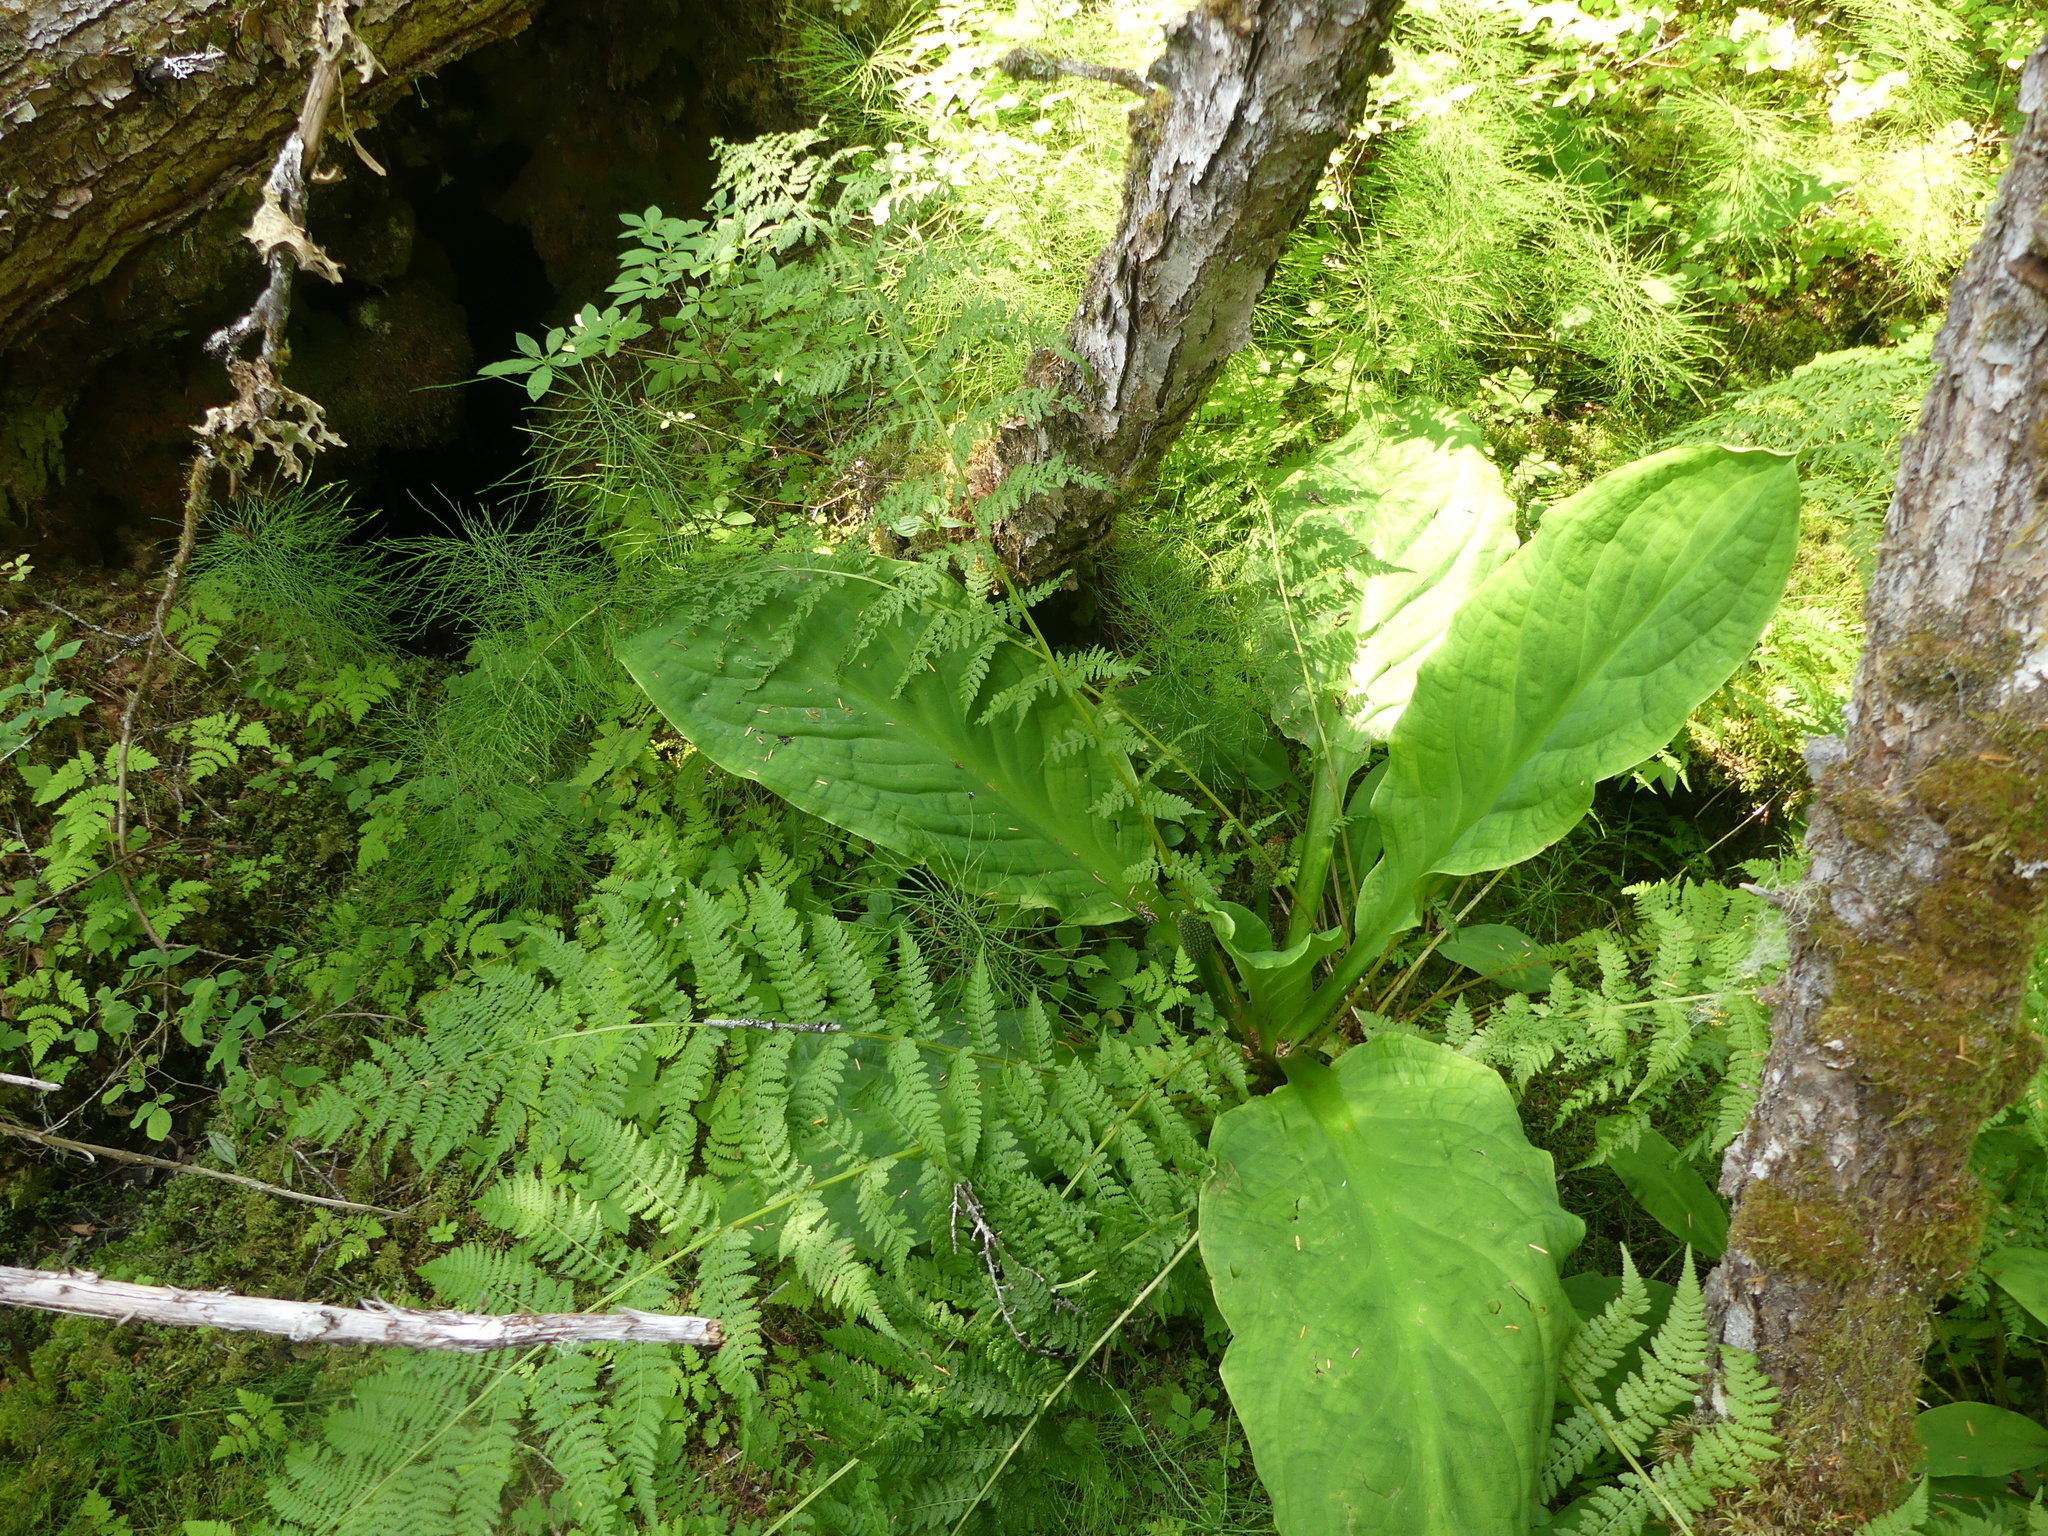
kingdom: Plantae
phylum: Tracheophyta
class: Liliopsida
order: Alismatales
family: Araceae
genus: Lysichiton
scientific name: Lysichiton americanus
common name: American skunk cabbage
